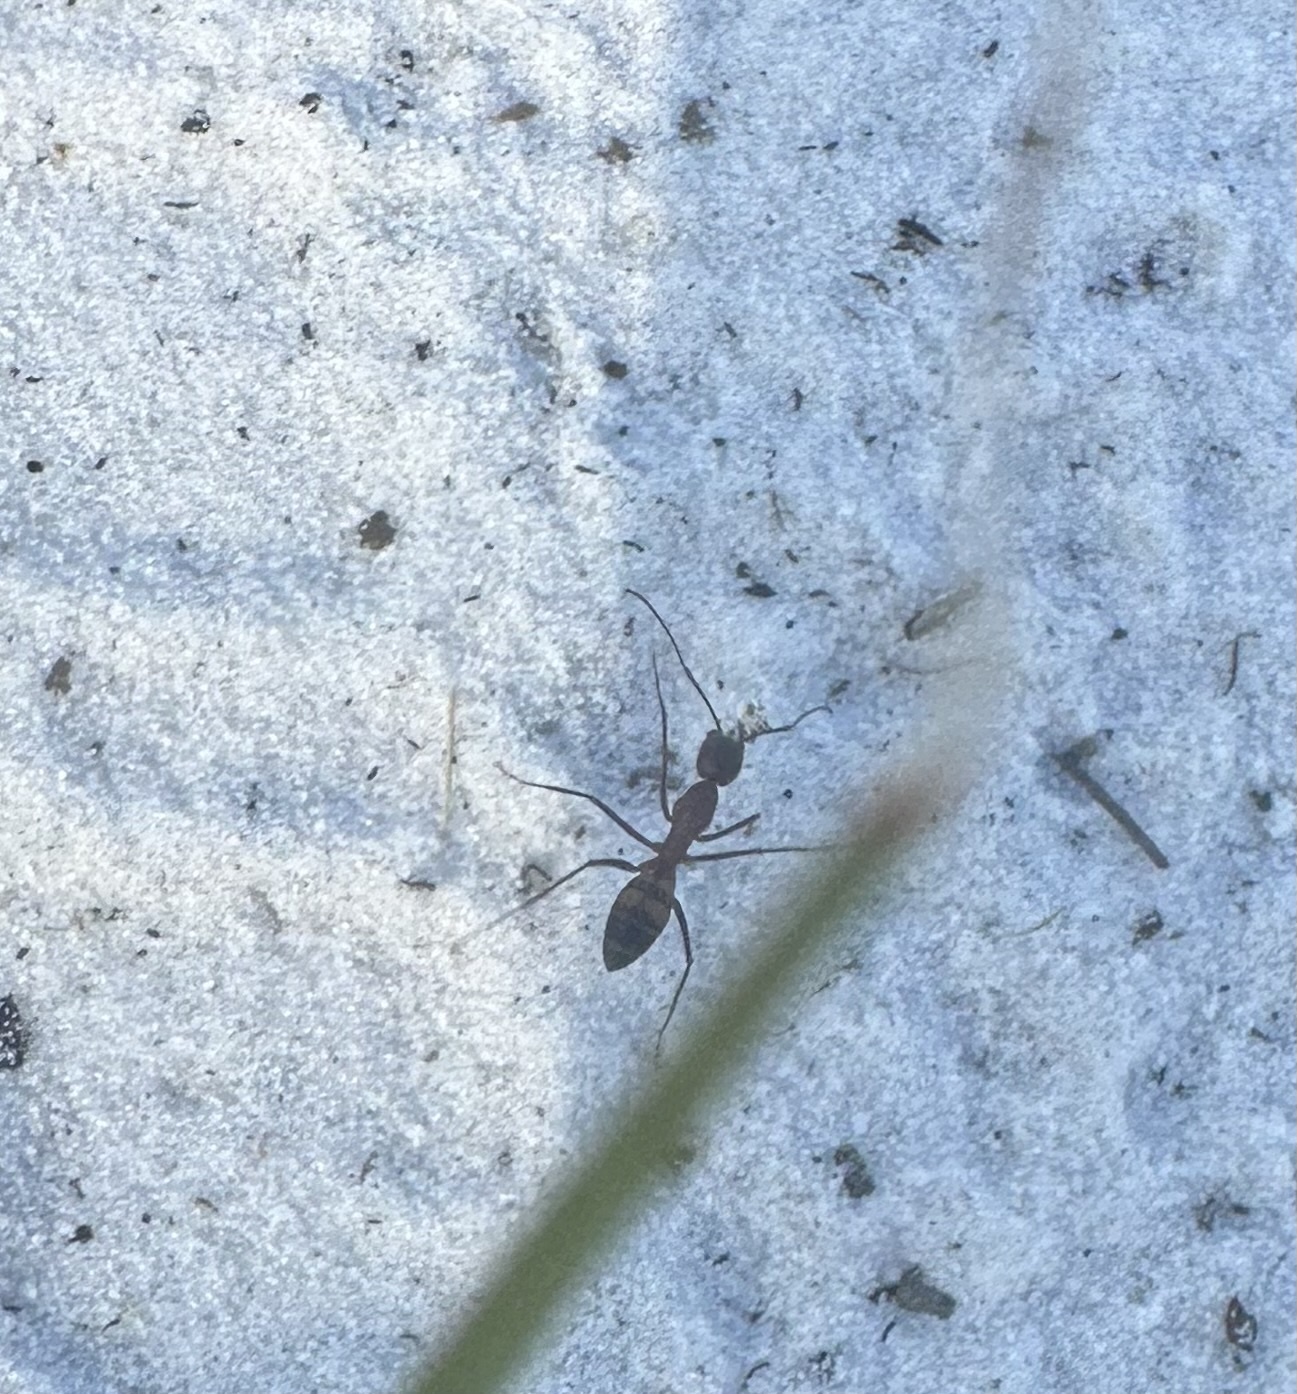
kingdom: Animalia
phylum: Arthropoda
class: Insecta
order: Hymenoptera
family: Formicidae
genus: Camponotus
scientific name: Camponotus socius
